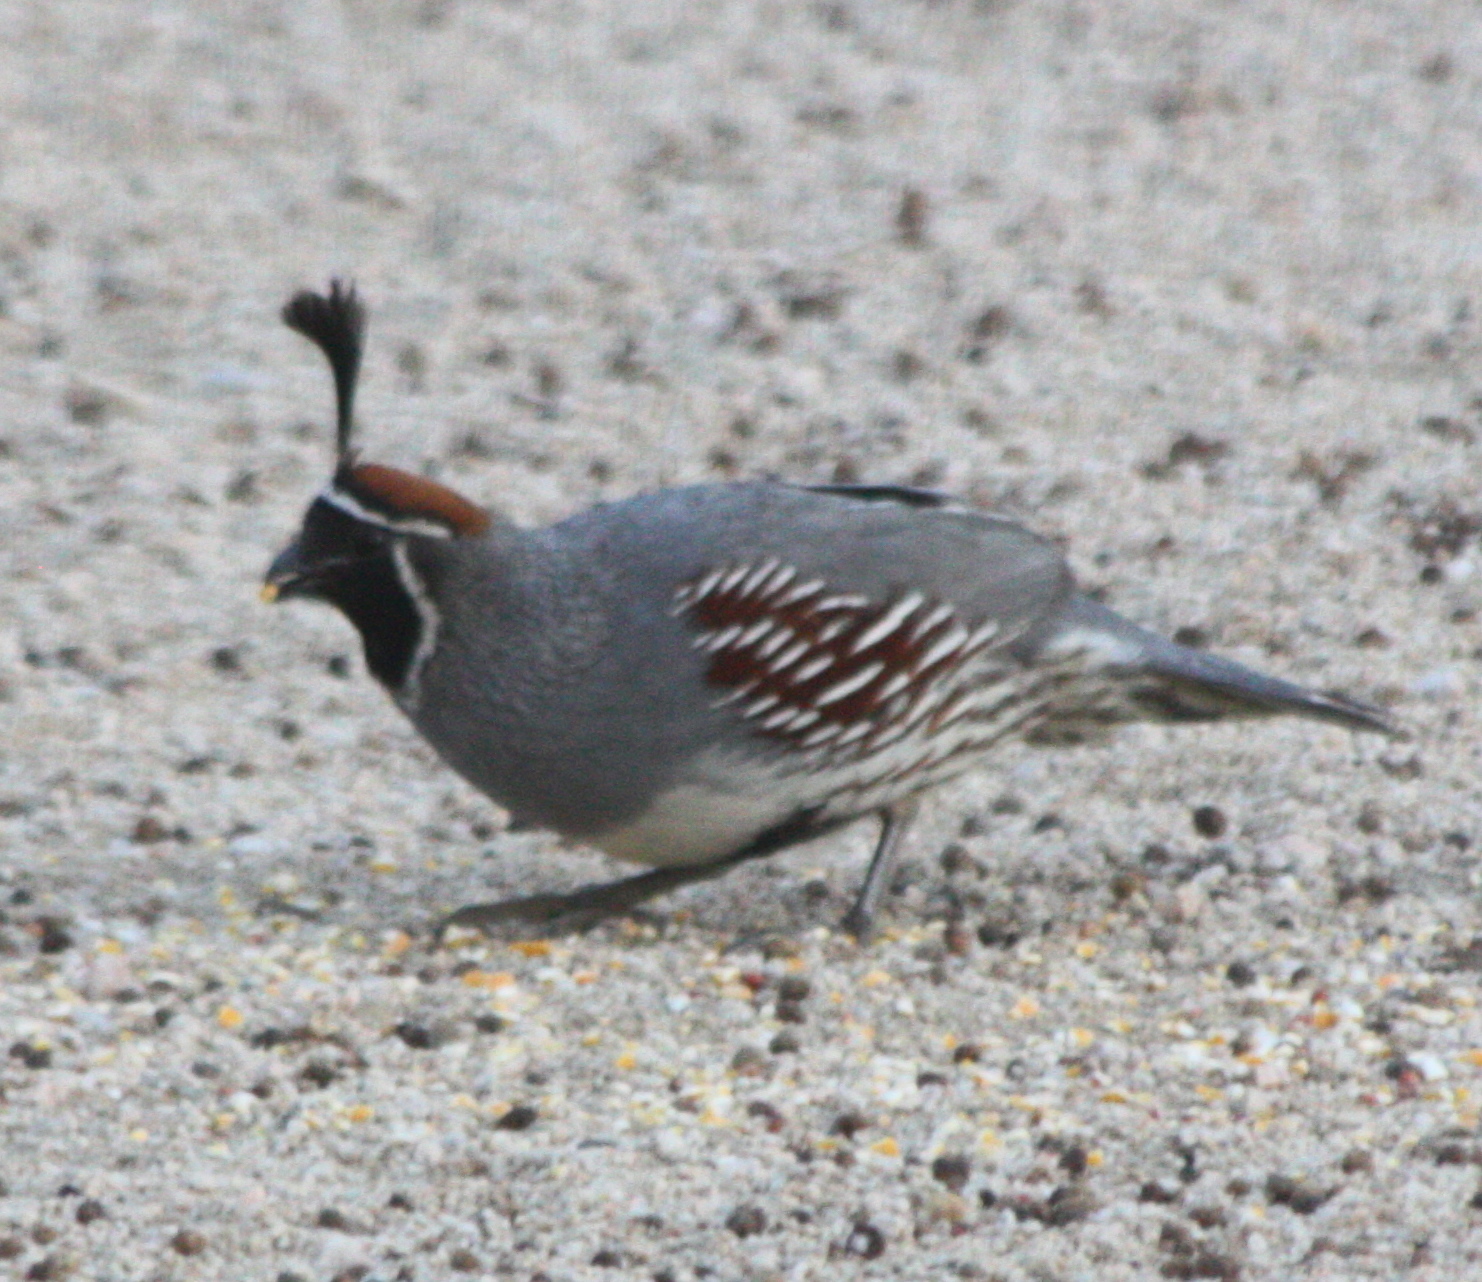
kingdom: Animalia
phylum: Chordata
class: Aves
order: Galliformes
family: Odontophoridae
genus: Callipepla
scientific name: Callipepla gambelii
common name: Gambel's quail
